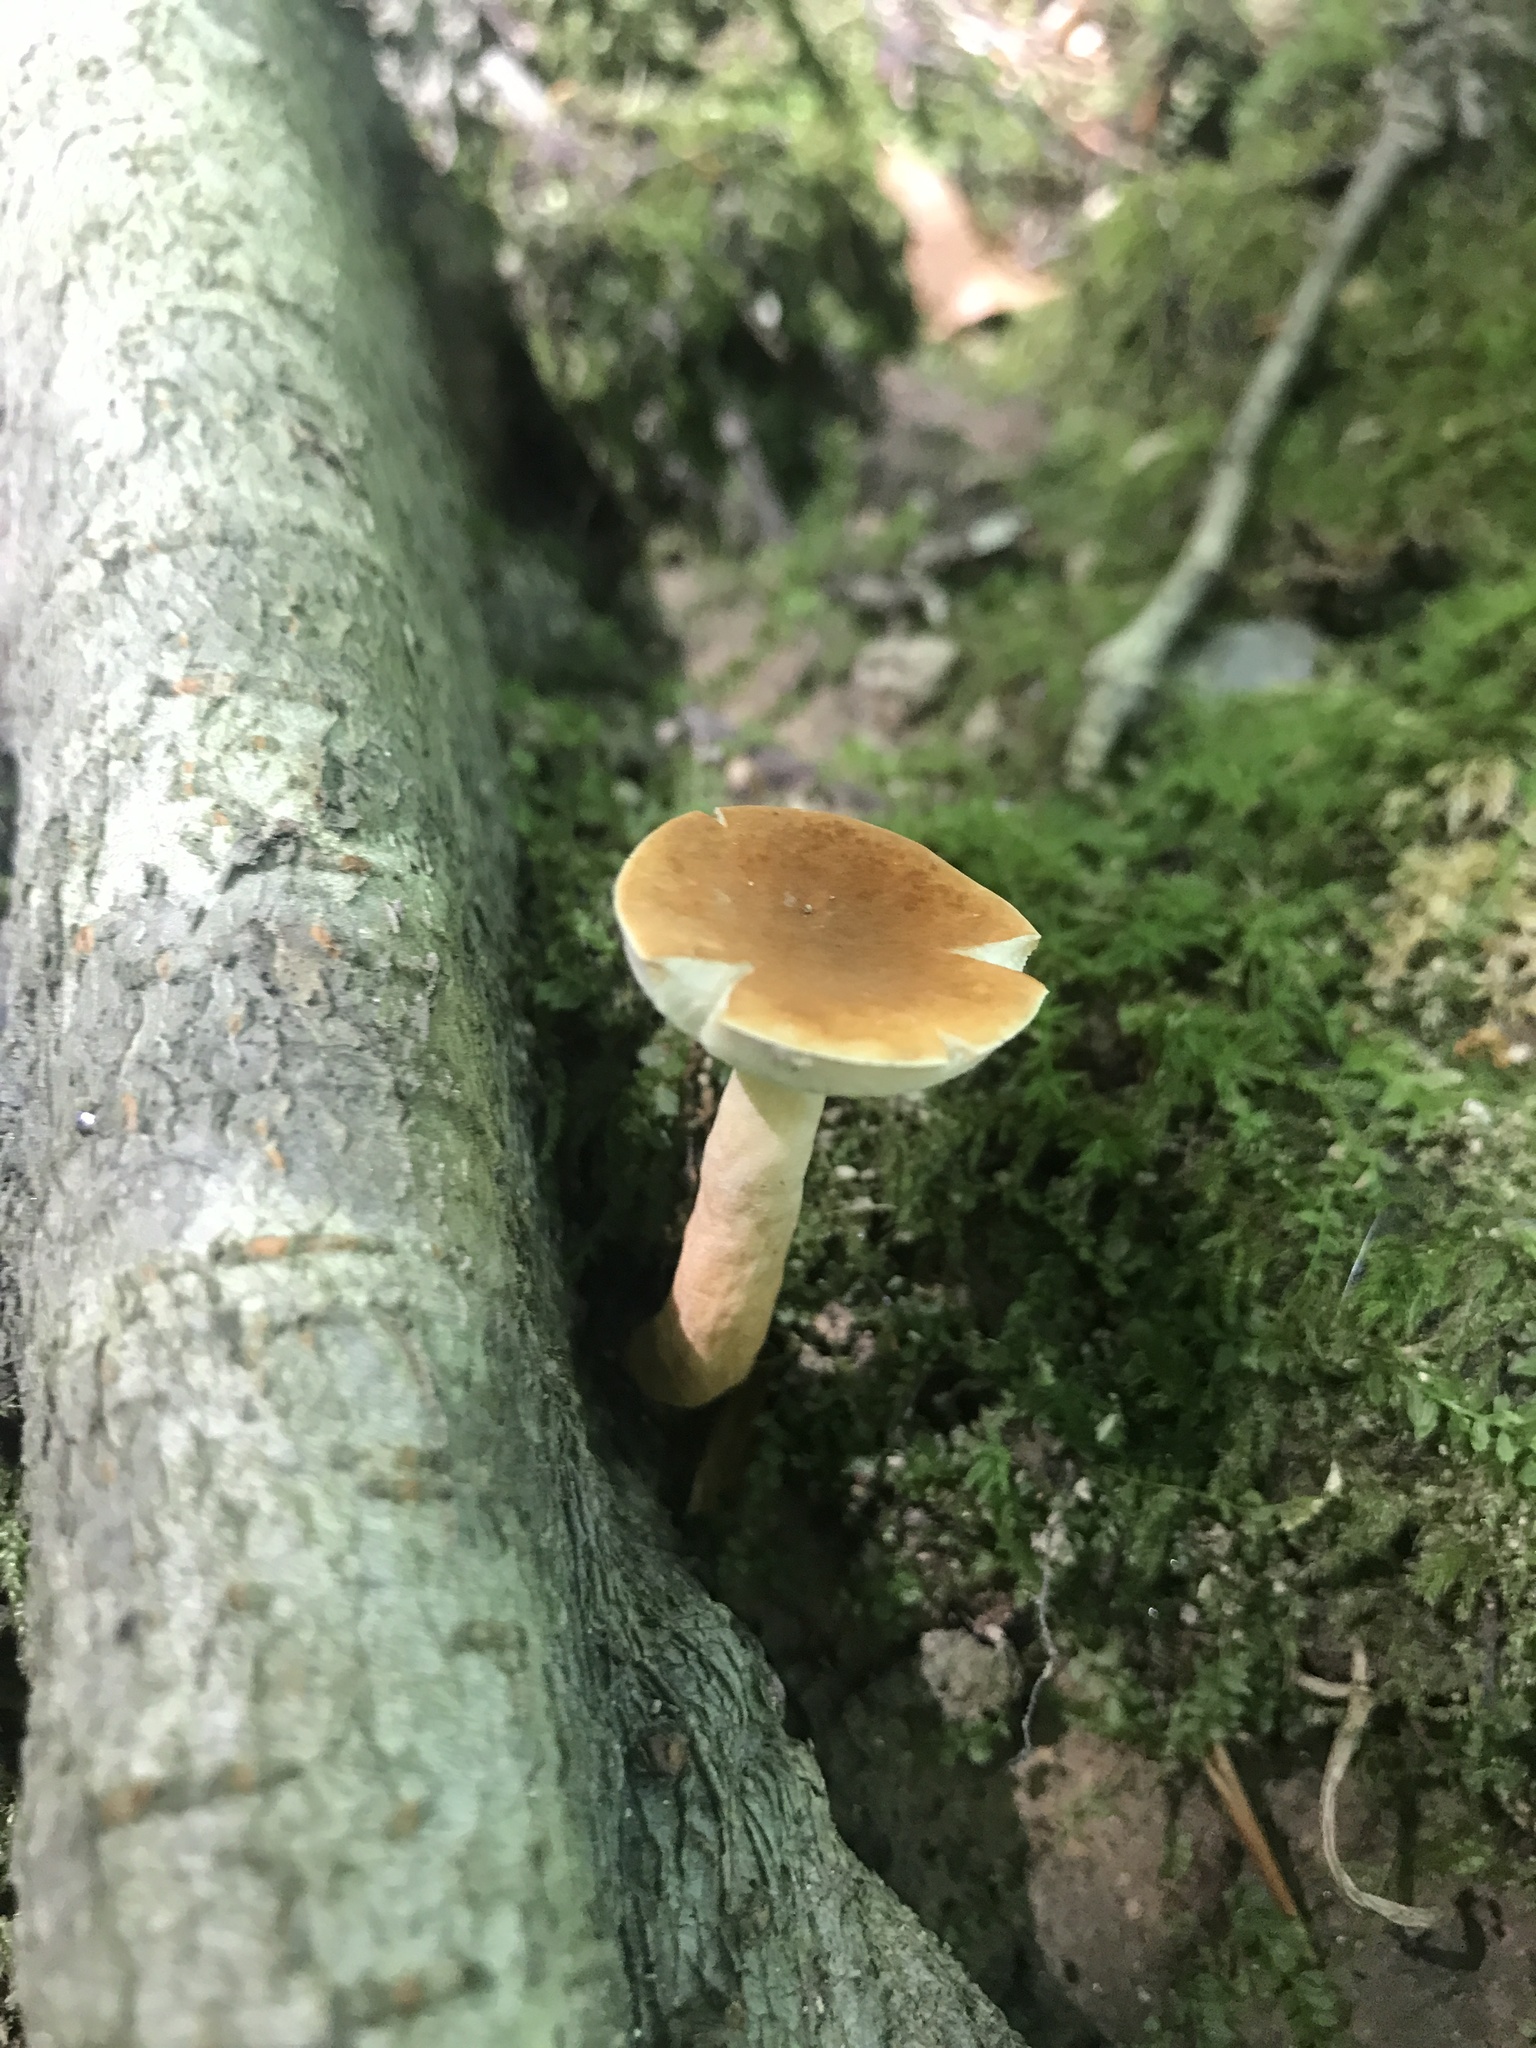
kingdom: Fungi
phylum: Basidiomycota
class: Agaricomycetes
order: Boletales
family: Gyroporaceae
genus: Gyroporus
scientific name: Gyroporus castaneus
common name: Chestnut bolete
